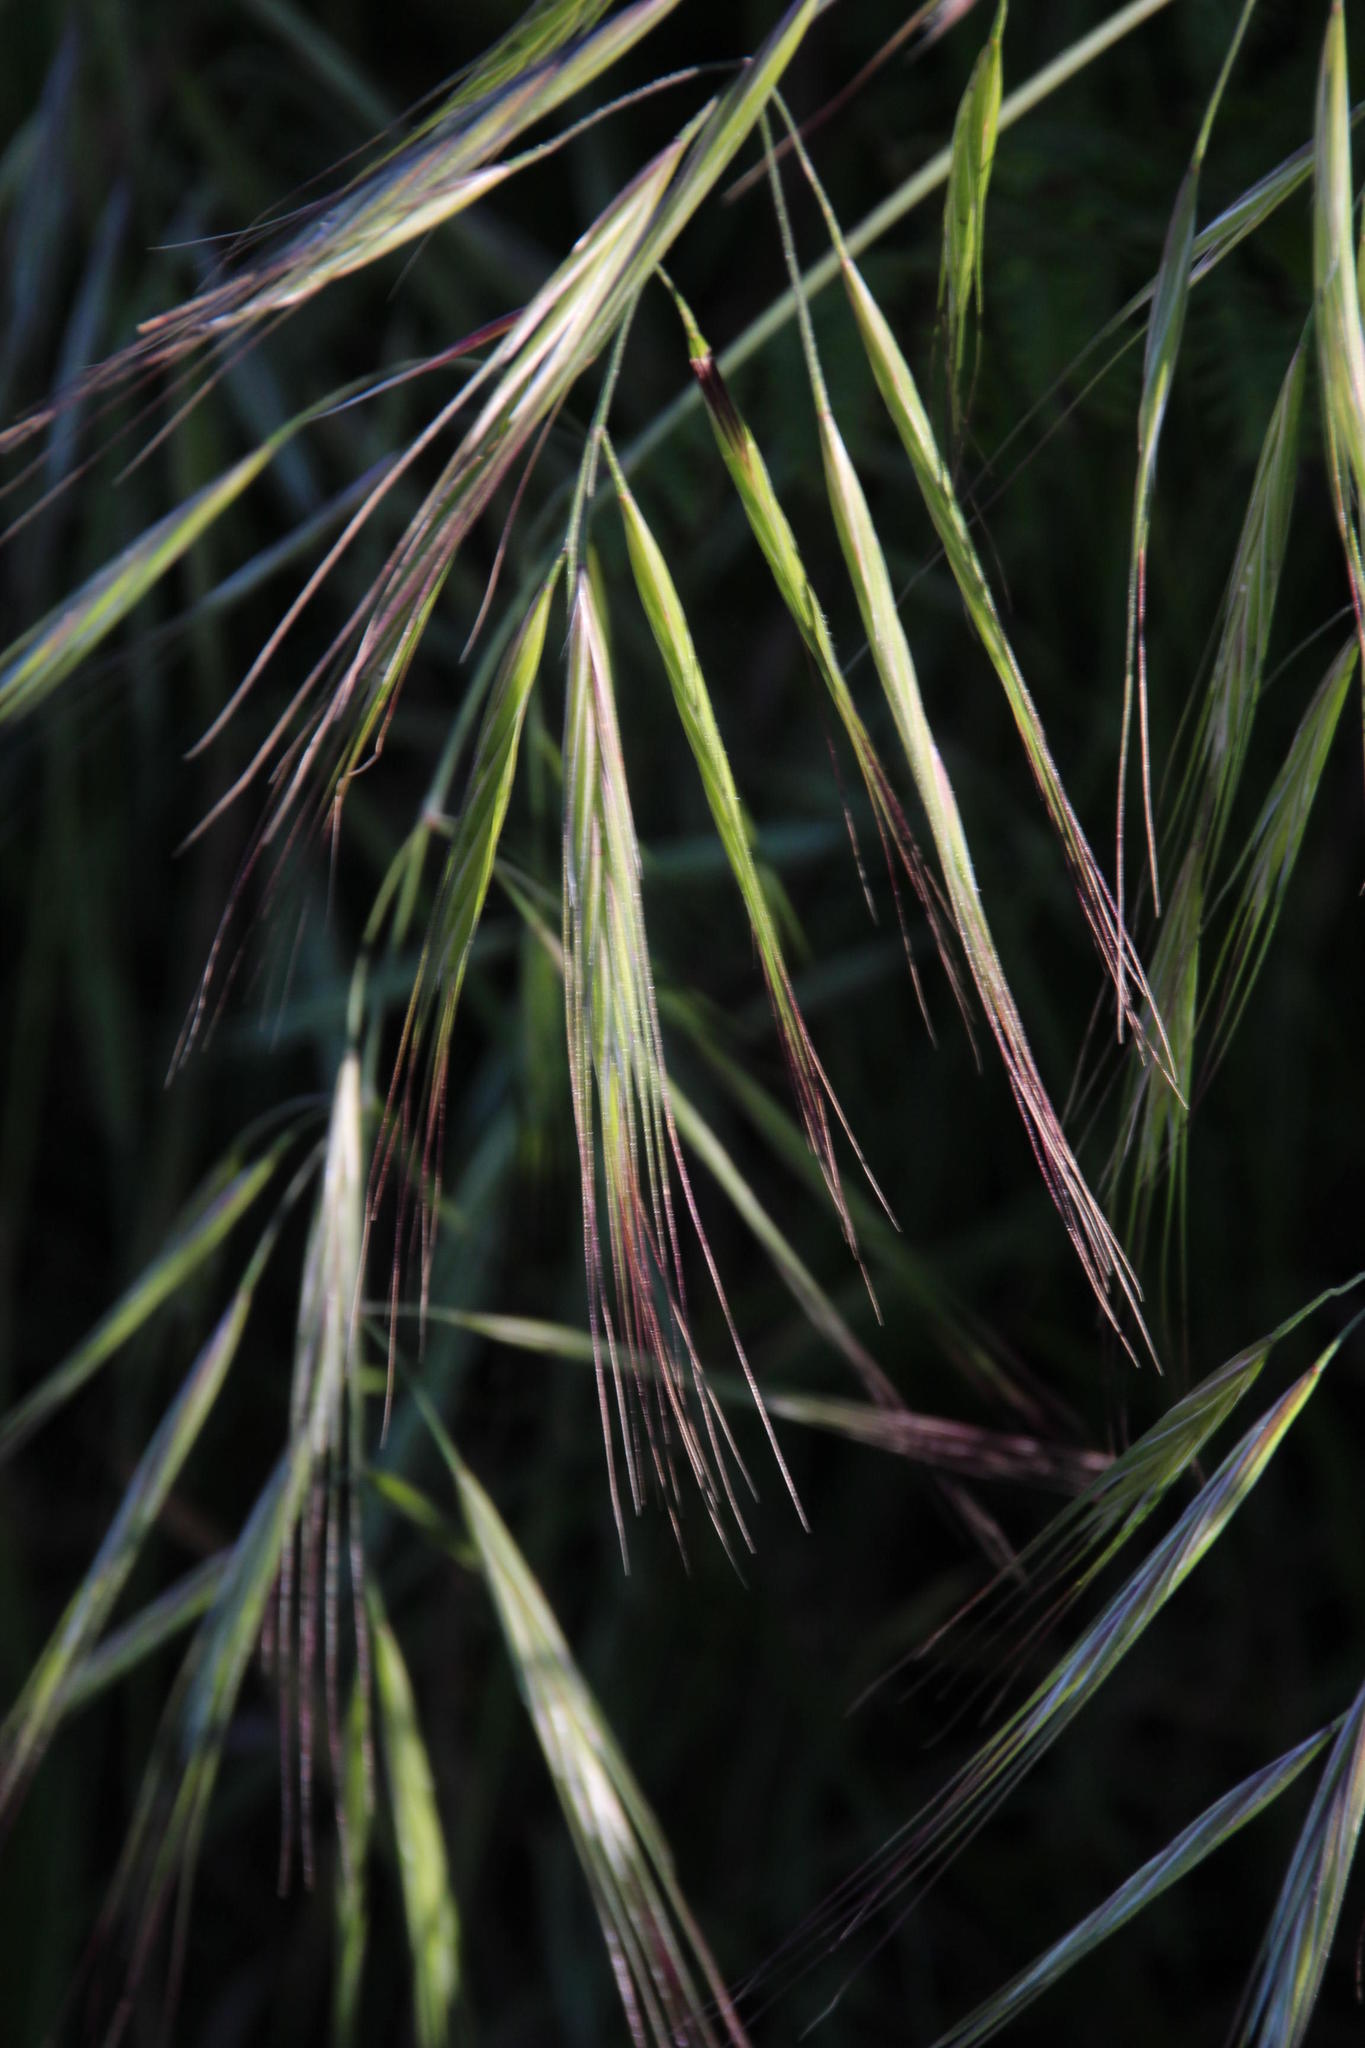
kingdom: Plantae
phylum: Tracheophyta
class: Liliopsida
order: Poales
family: Poaceae
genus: Bromus
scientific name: Bromus diandrus
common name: Ripgut brome
